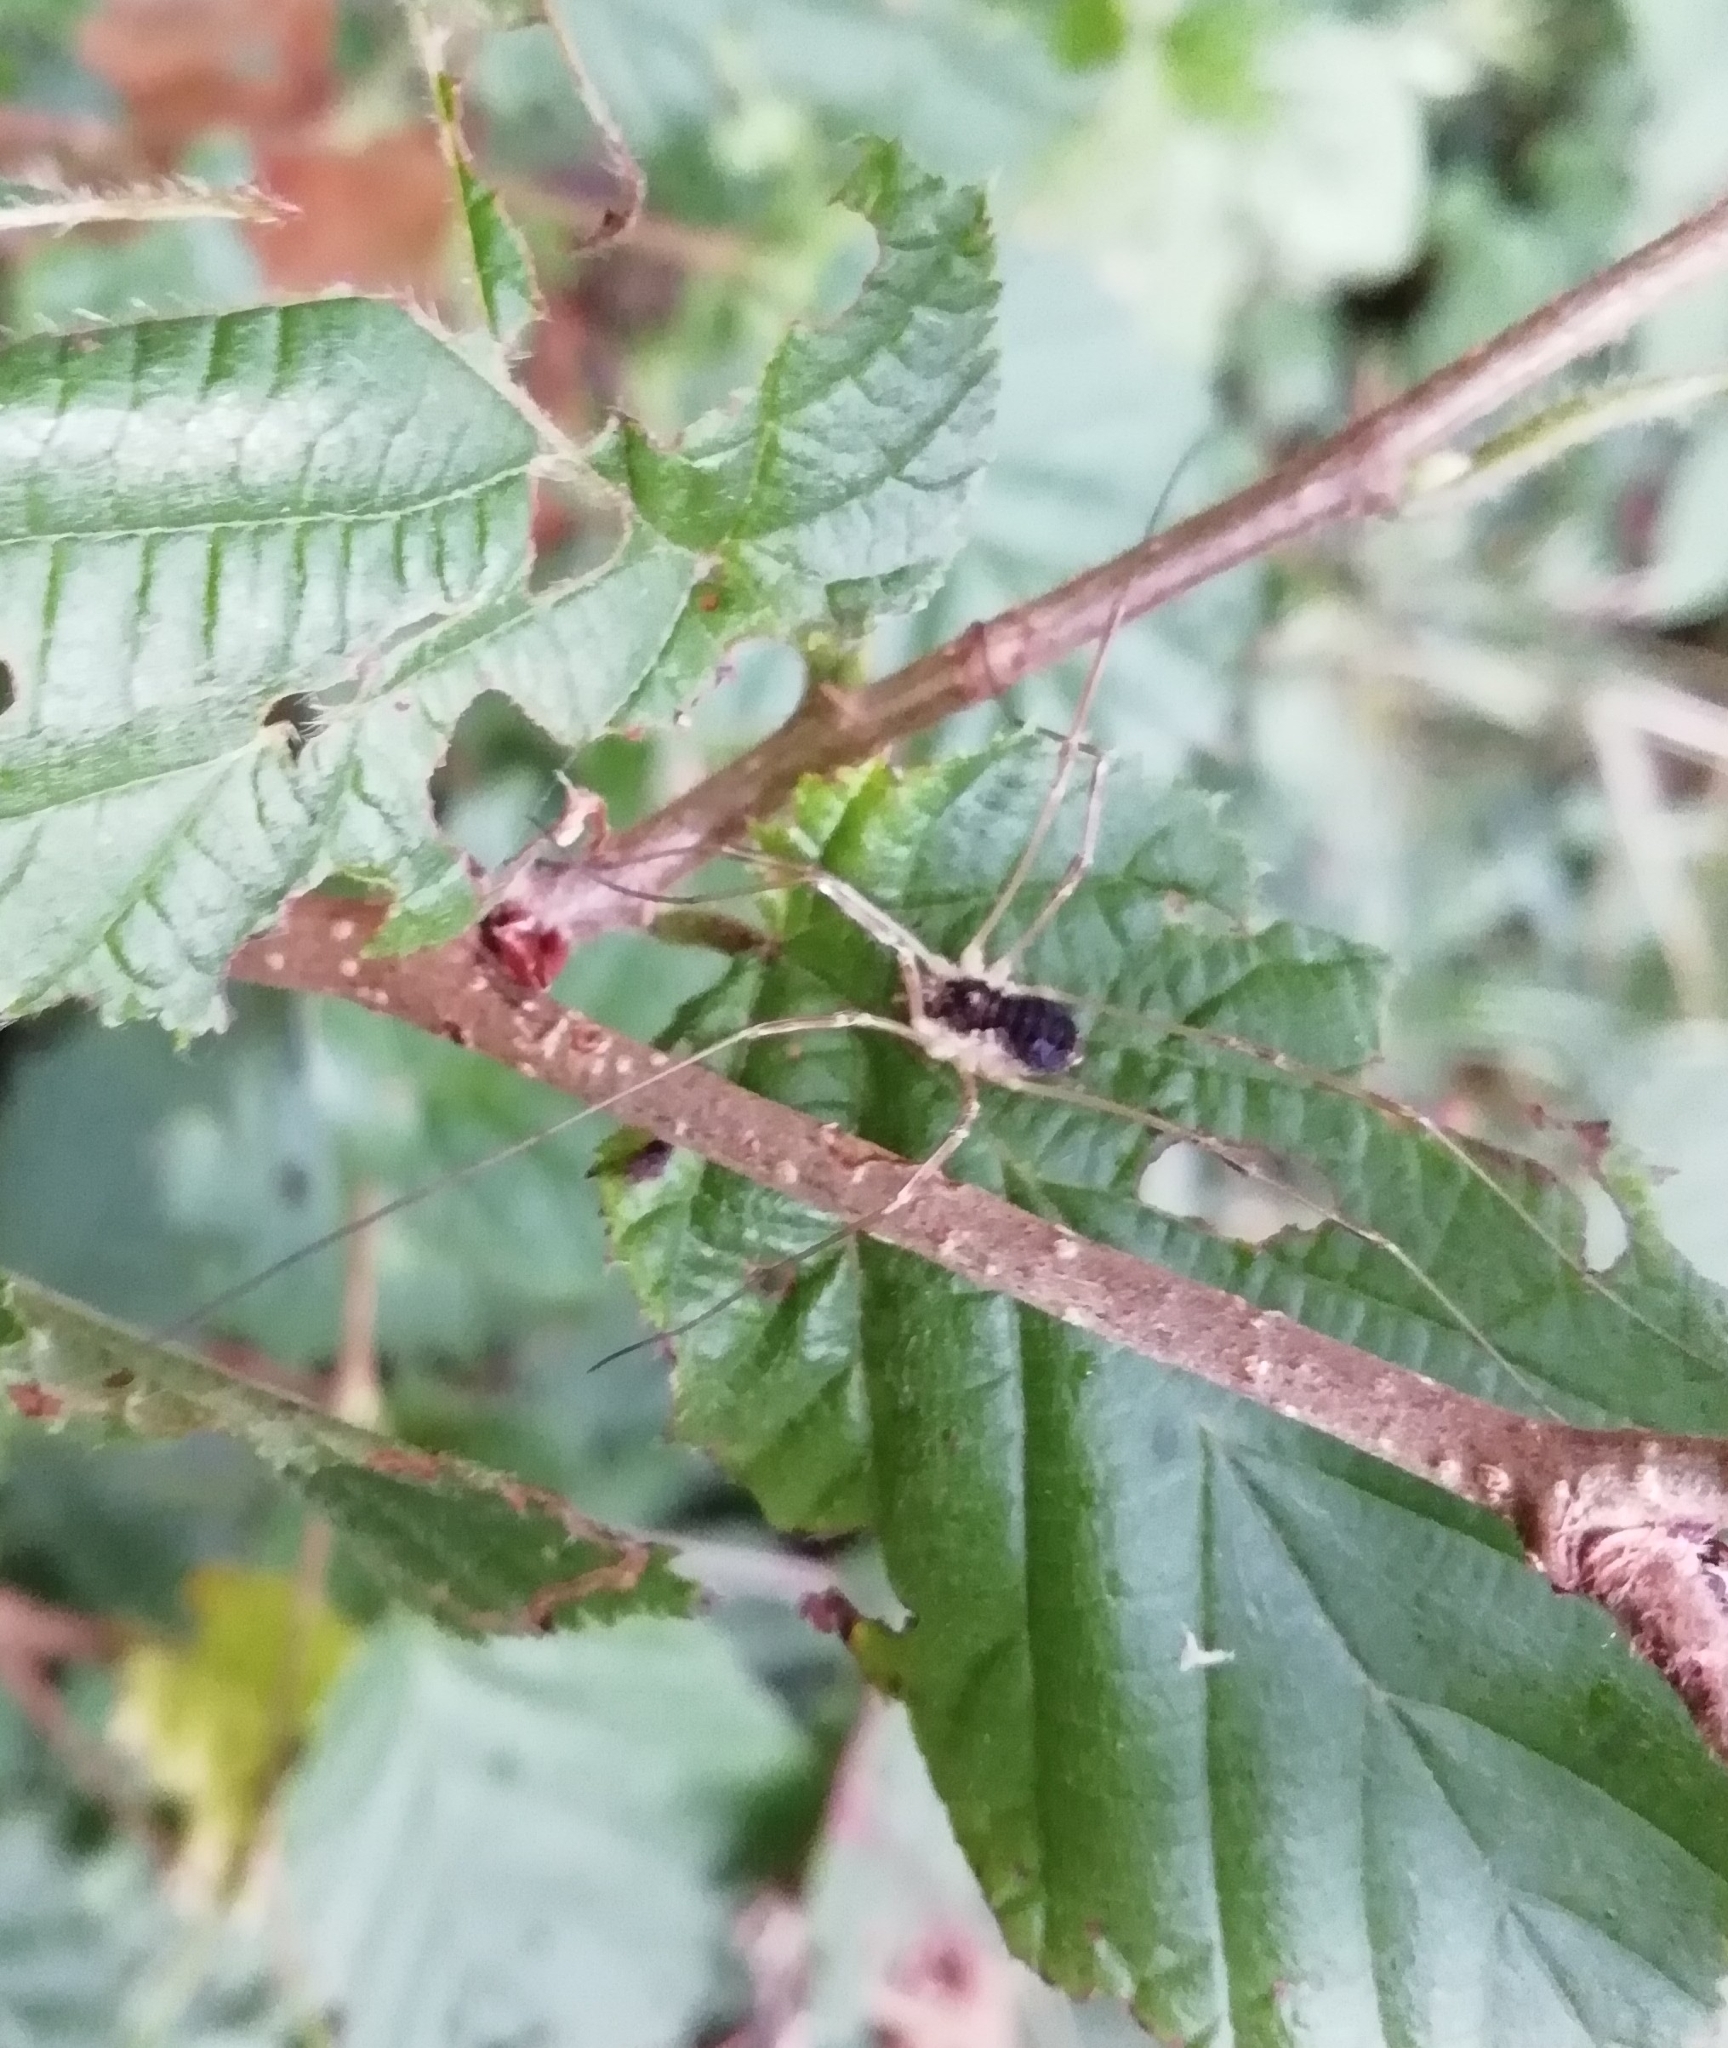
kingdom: Animalia
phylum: Arthropoda
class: Arachnida
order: Opiliones
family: Phalangiidae
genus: Mitopus
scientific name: Mitopus morio
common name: Saddleback harvestman
